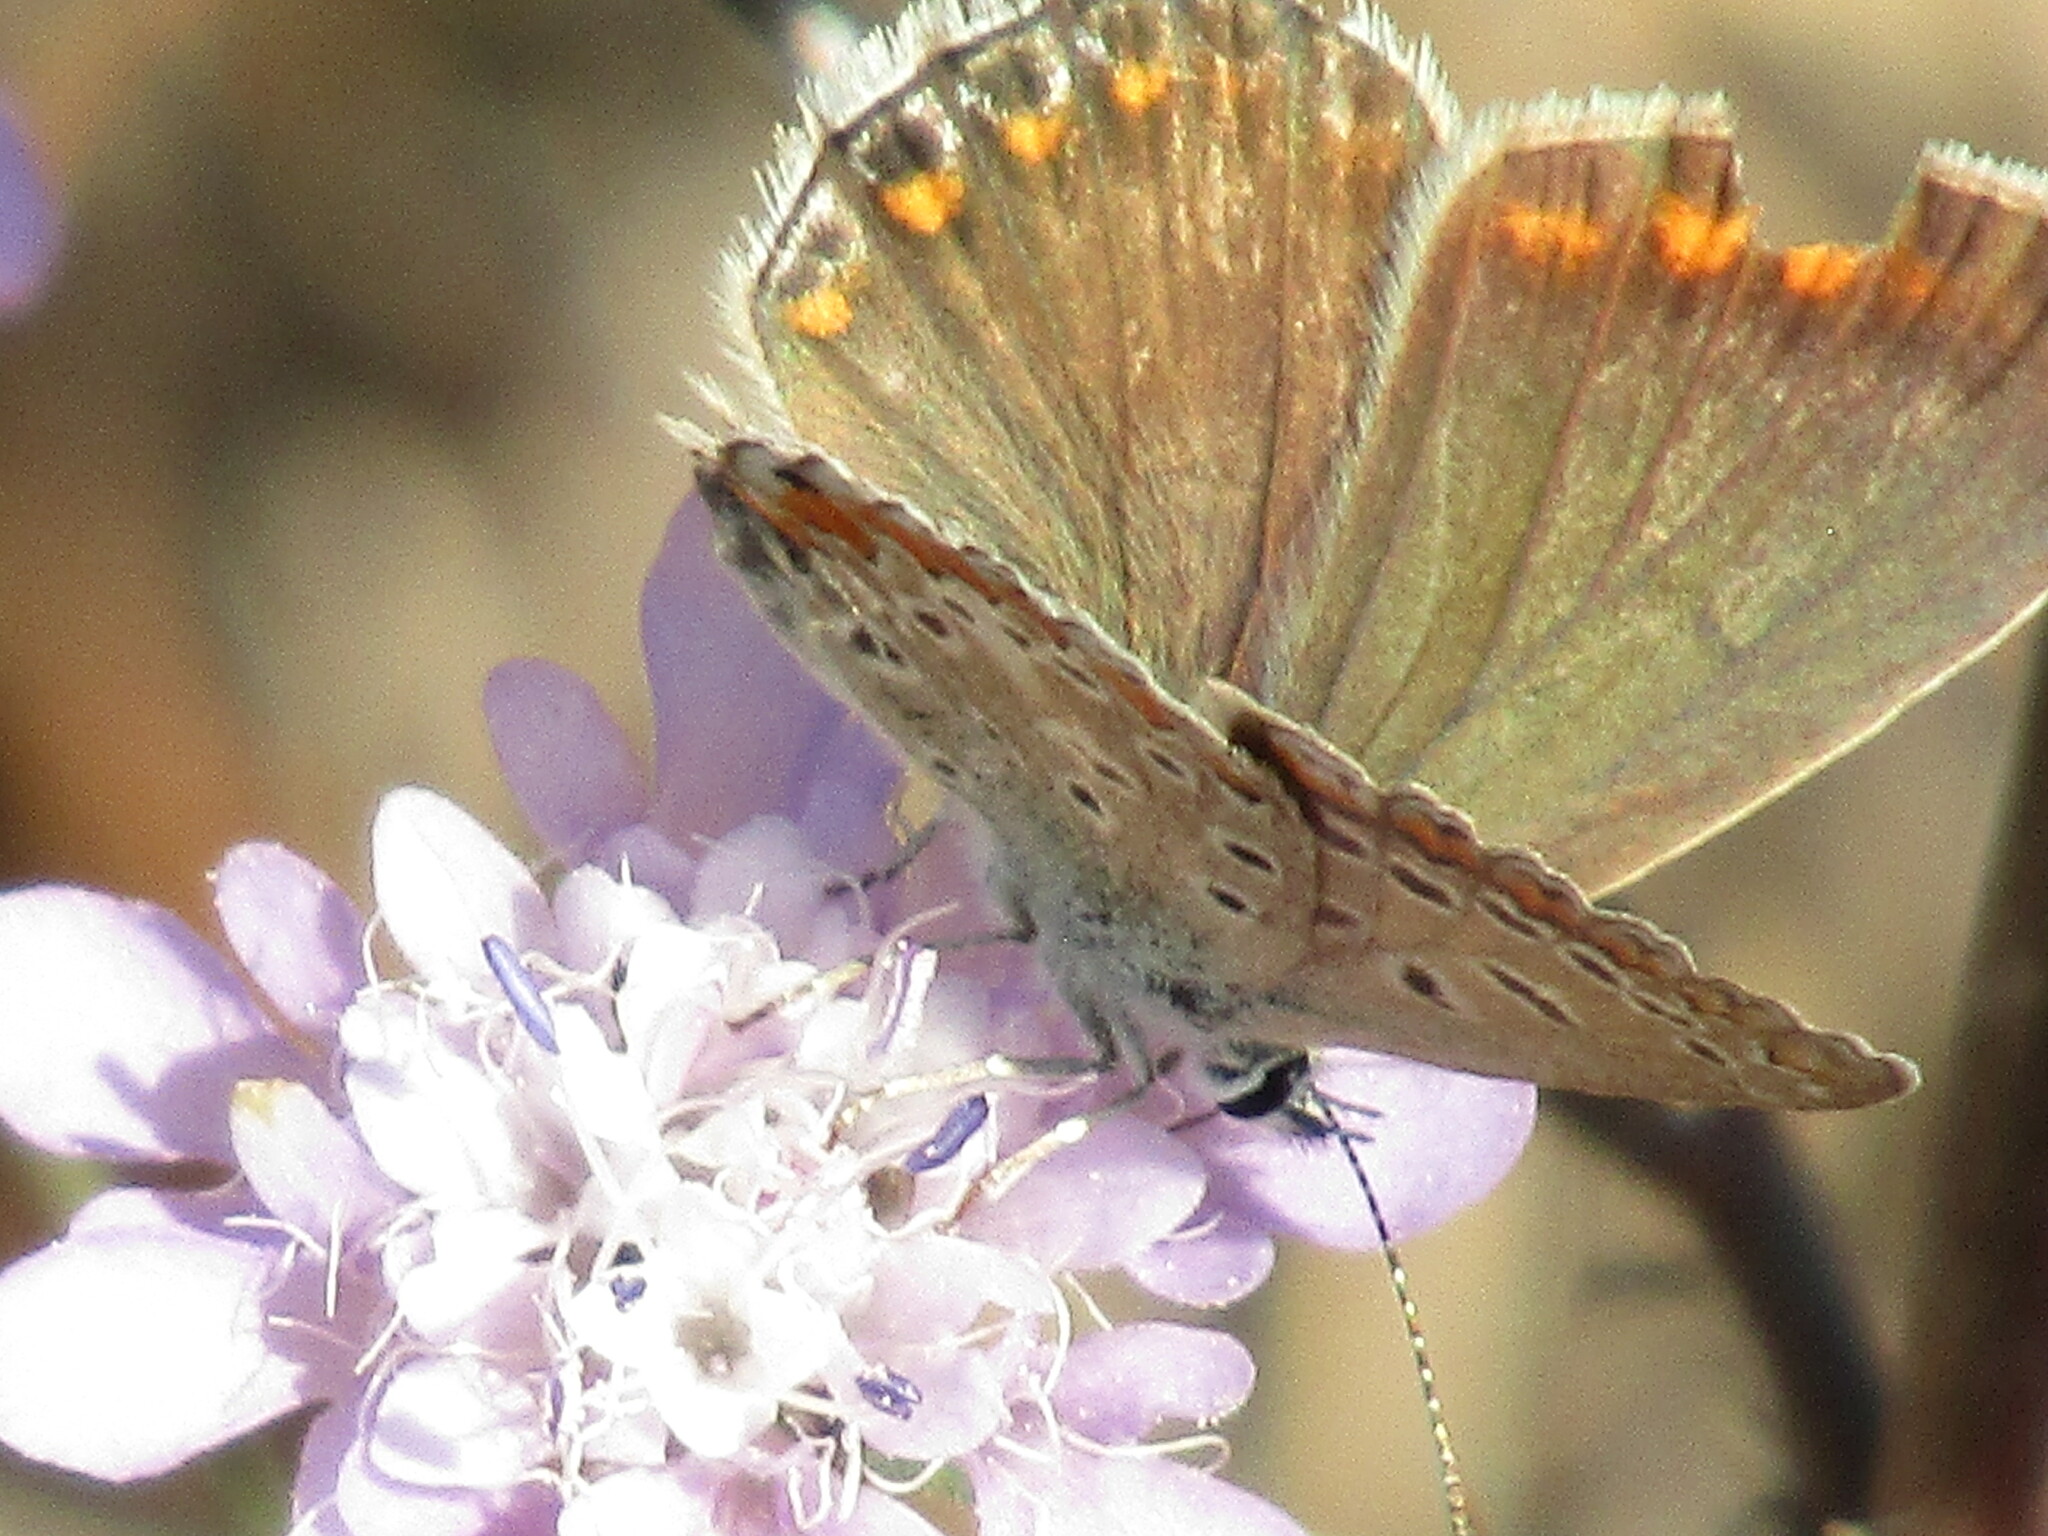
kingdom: Animalia
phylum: Arthropoda
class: Insecta
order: Lepidoptera
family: Lycaenidae
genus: Polyommatus
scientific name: Polyommatus icarus
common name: Common blue
